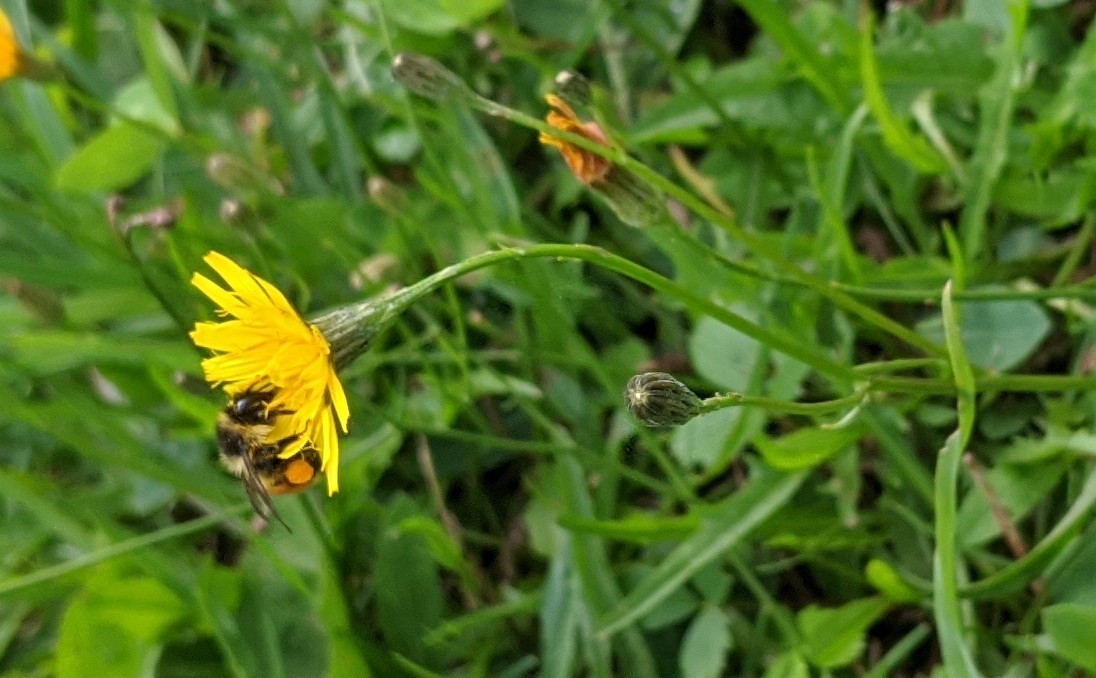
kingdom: Animalia
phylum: Arthropoda
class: Insecta
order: Hymenoptera
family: Apidae
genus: Bombus
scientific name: Bombus ternarius
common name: Tri-colored bumble bee
